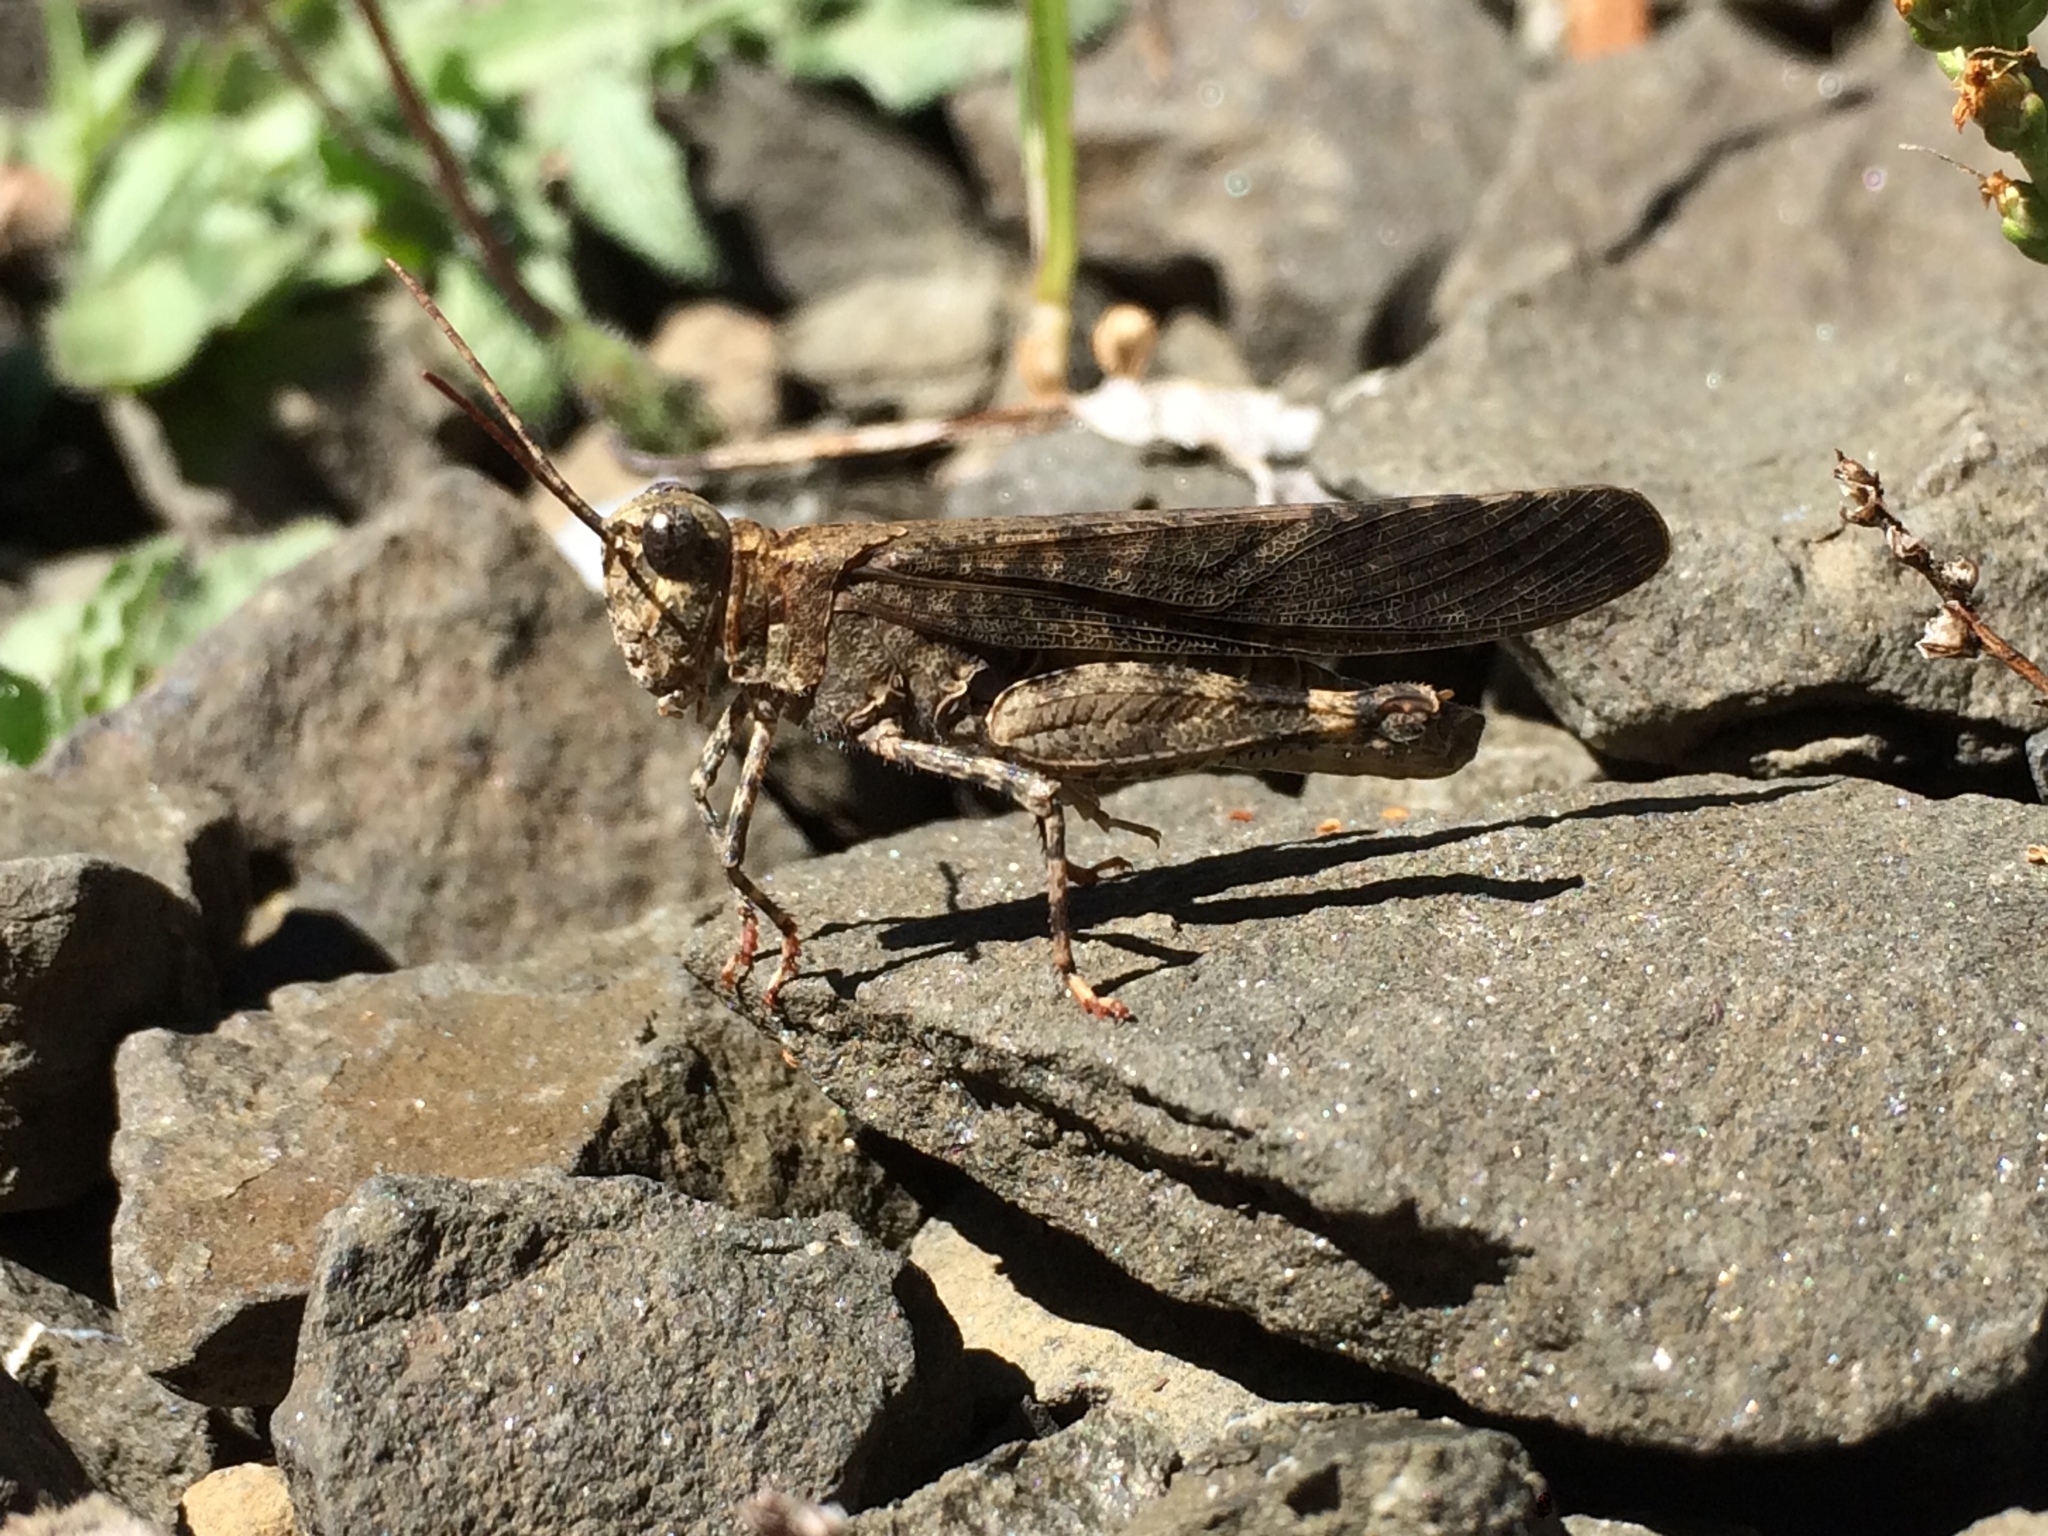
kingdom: Animalia
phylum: Arthropoda
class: Insecta
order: Orthoptera
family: Acrididae
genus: Trimerotropis
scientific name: Trimerotropis verruculata
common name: Crackling forest grasshopper
